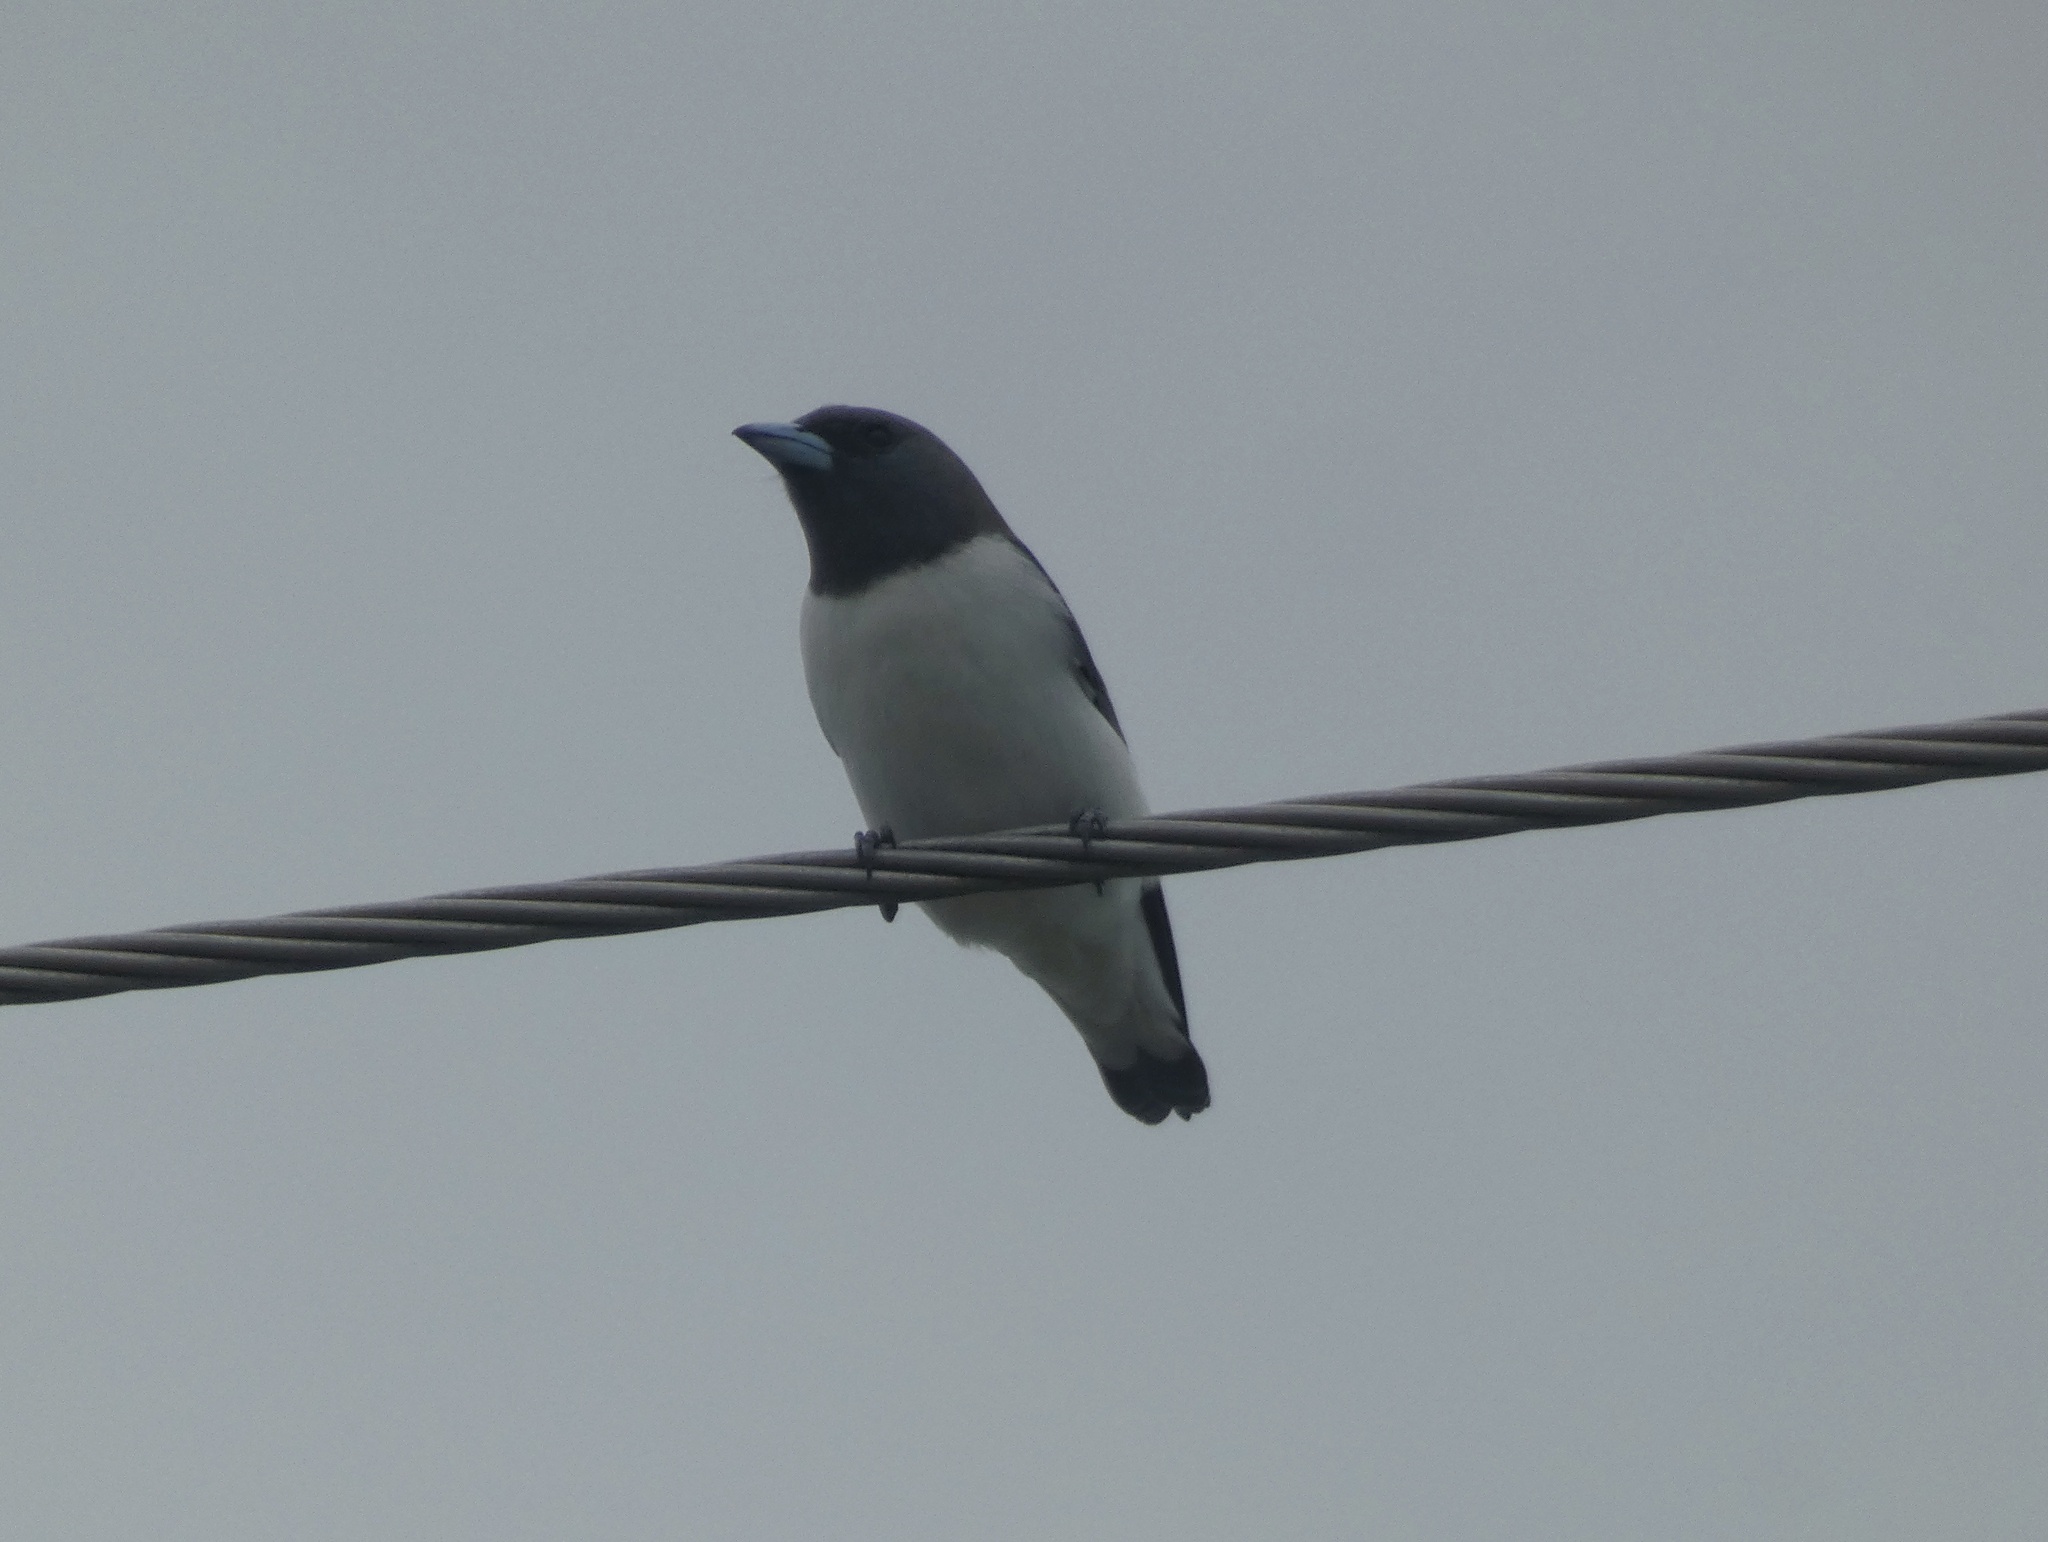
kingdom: Animalia
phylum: Chordata
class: Aves
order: Passeriformes
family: Artamidae
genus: Artamus
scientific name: Artamus leucoryn
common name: White-breasted woodswallow
